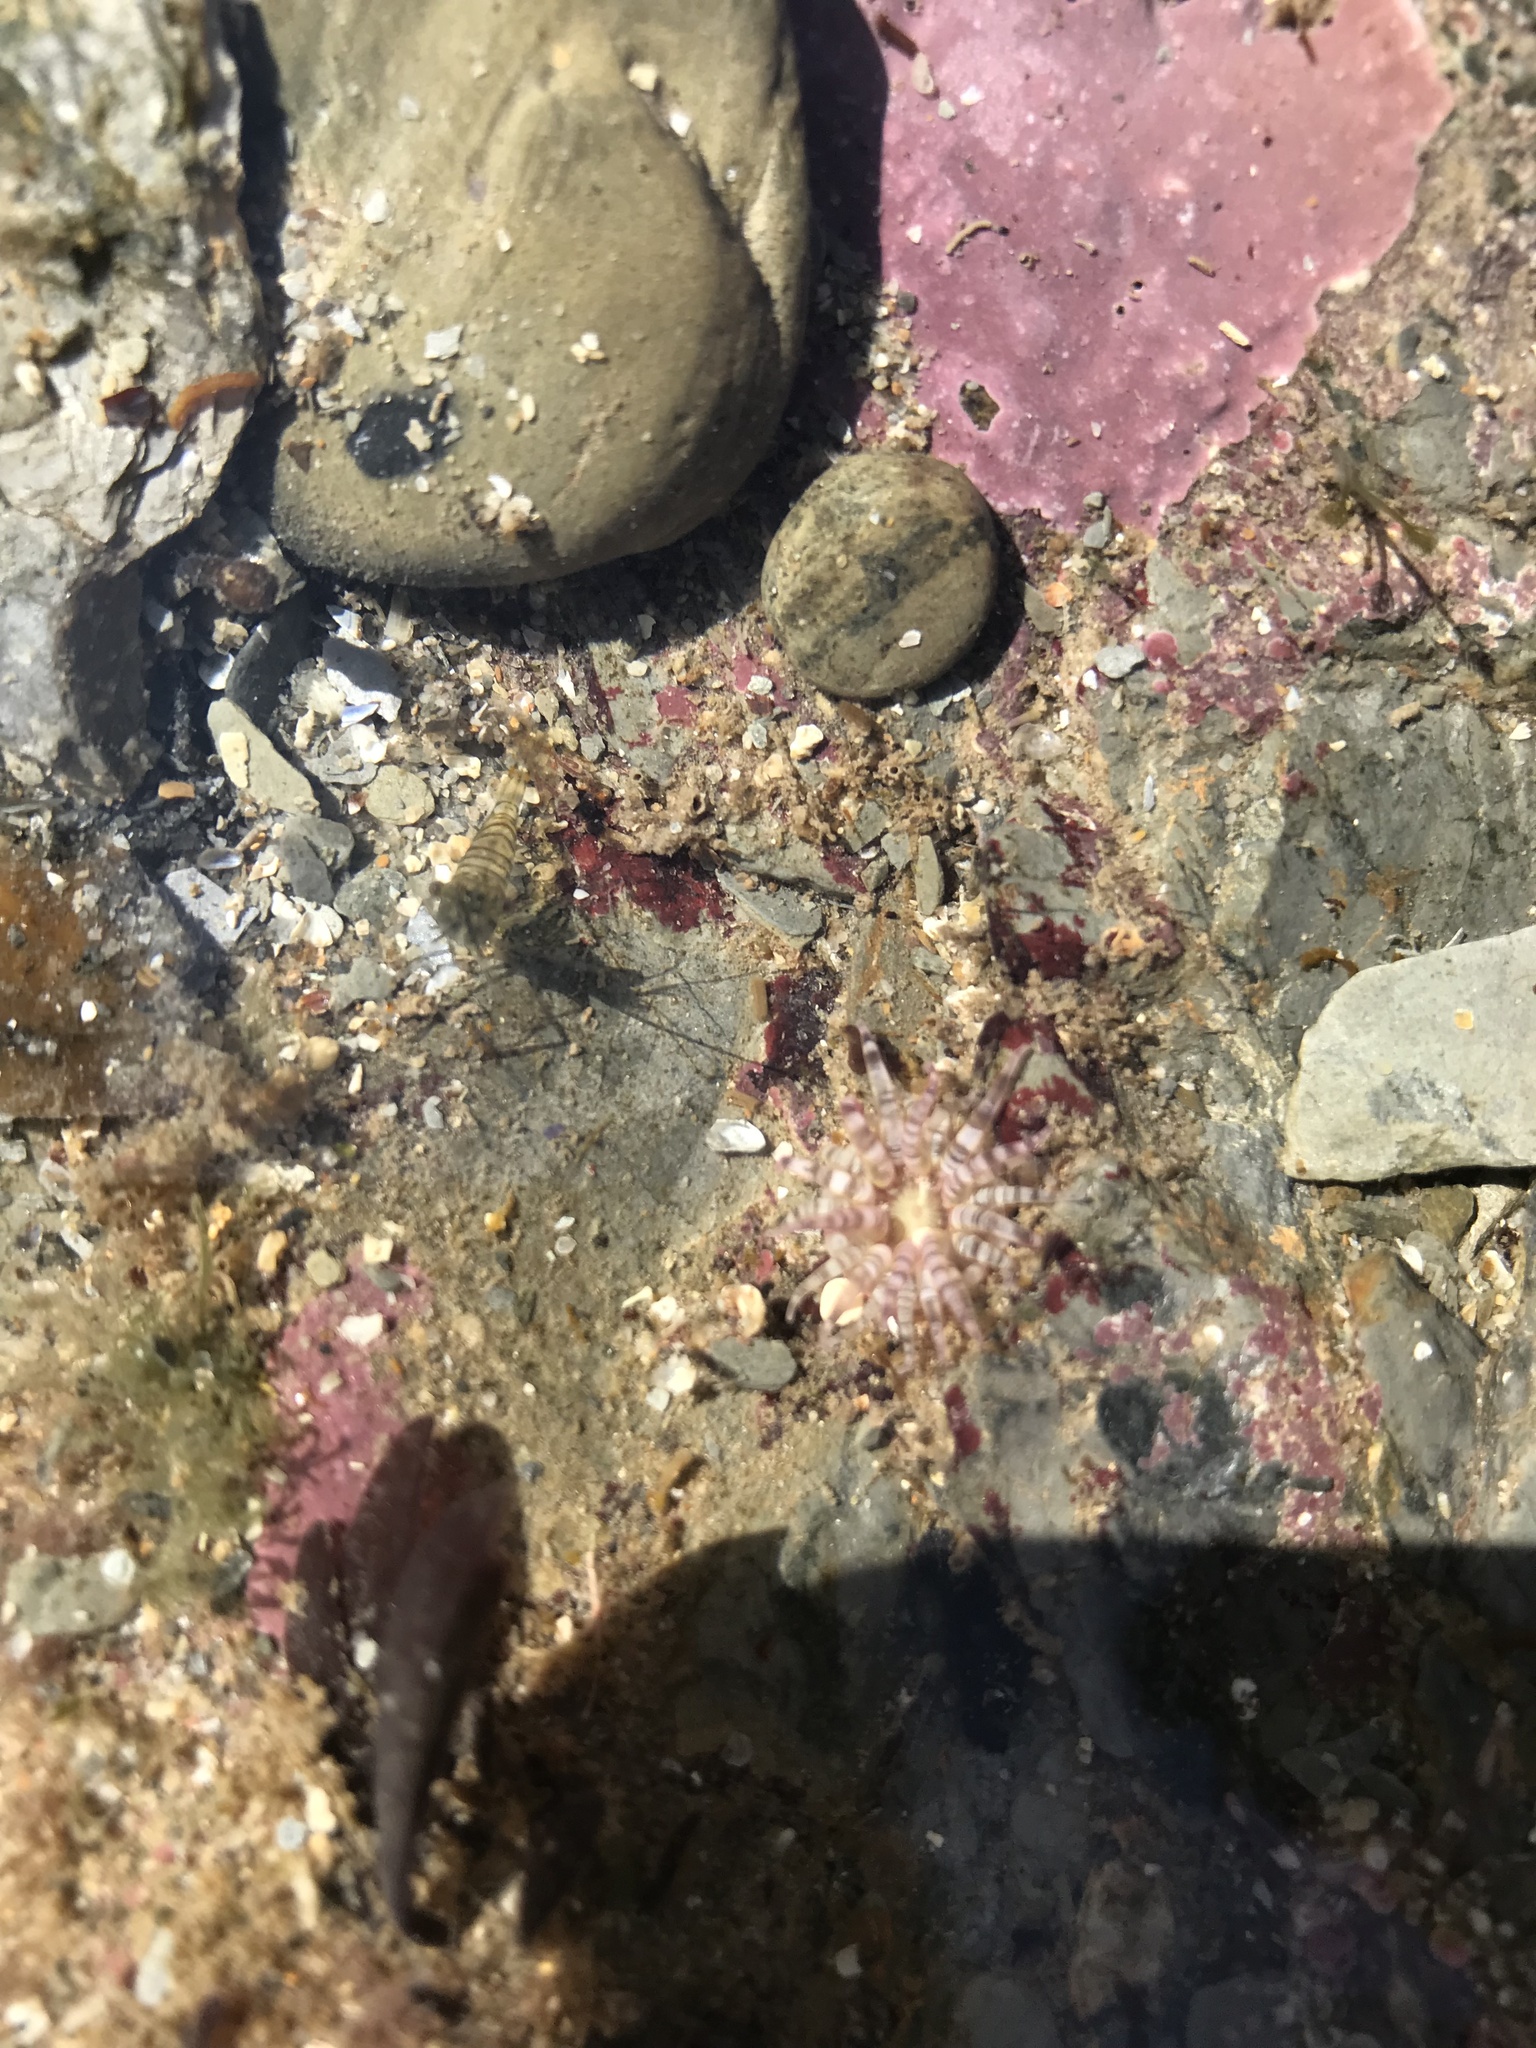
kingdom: Animalia
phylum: Cnidaria
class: Anthozoa
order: Actiniaria
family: Actiniidae
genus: Bunodactis
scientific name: Bunodactis verrucosa
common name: Gem anemone
